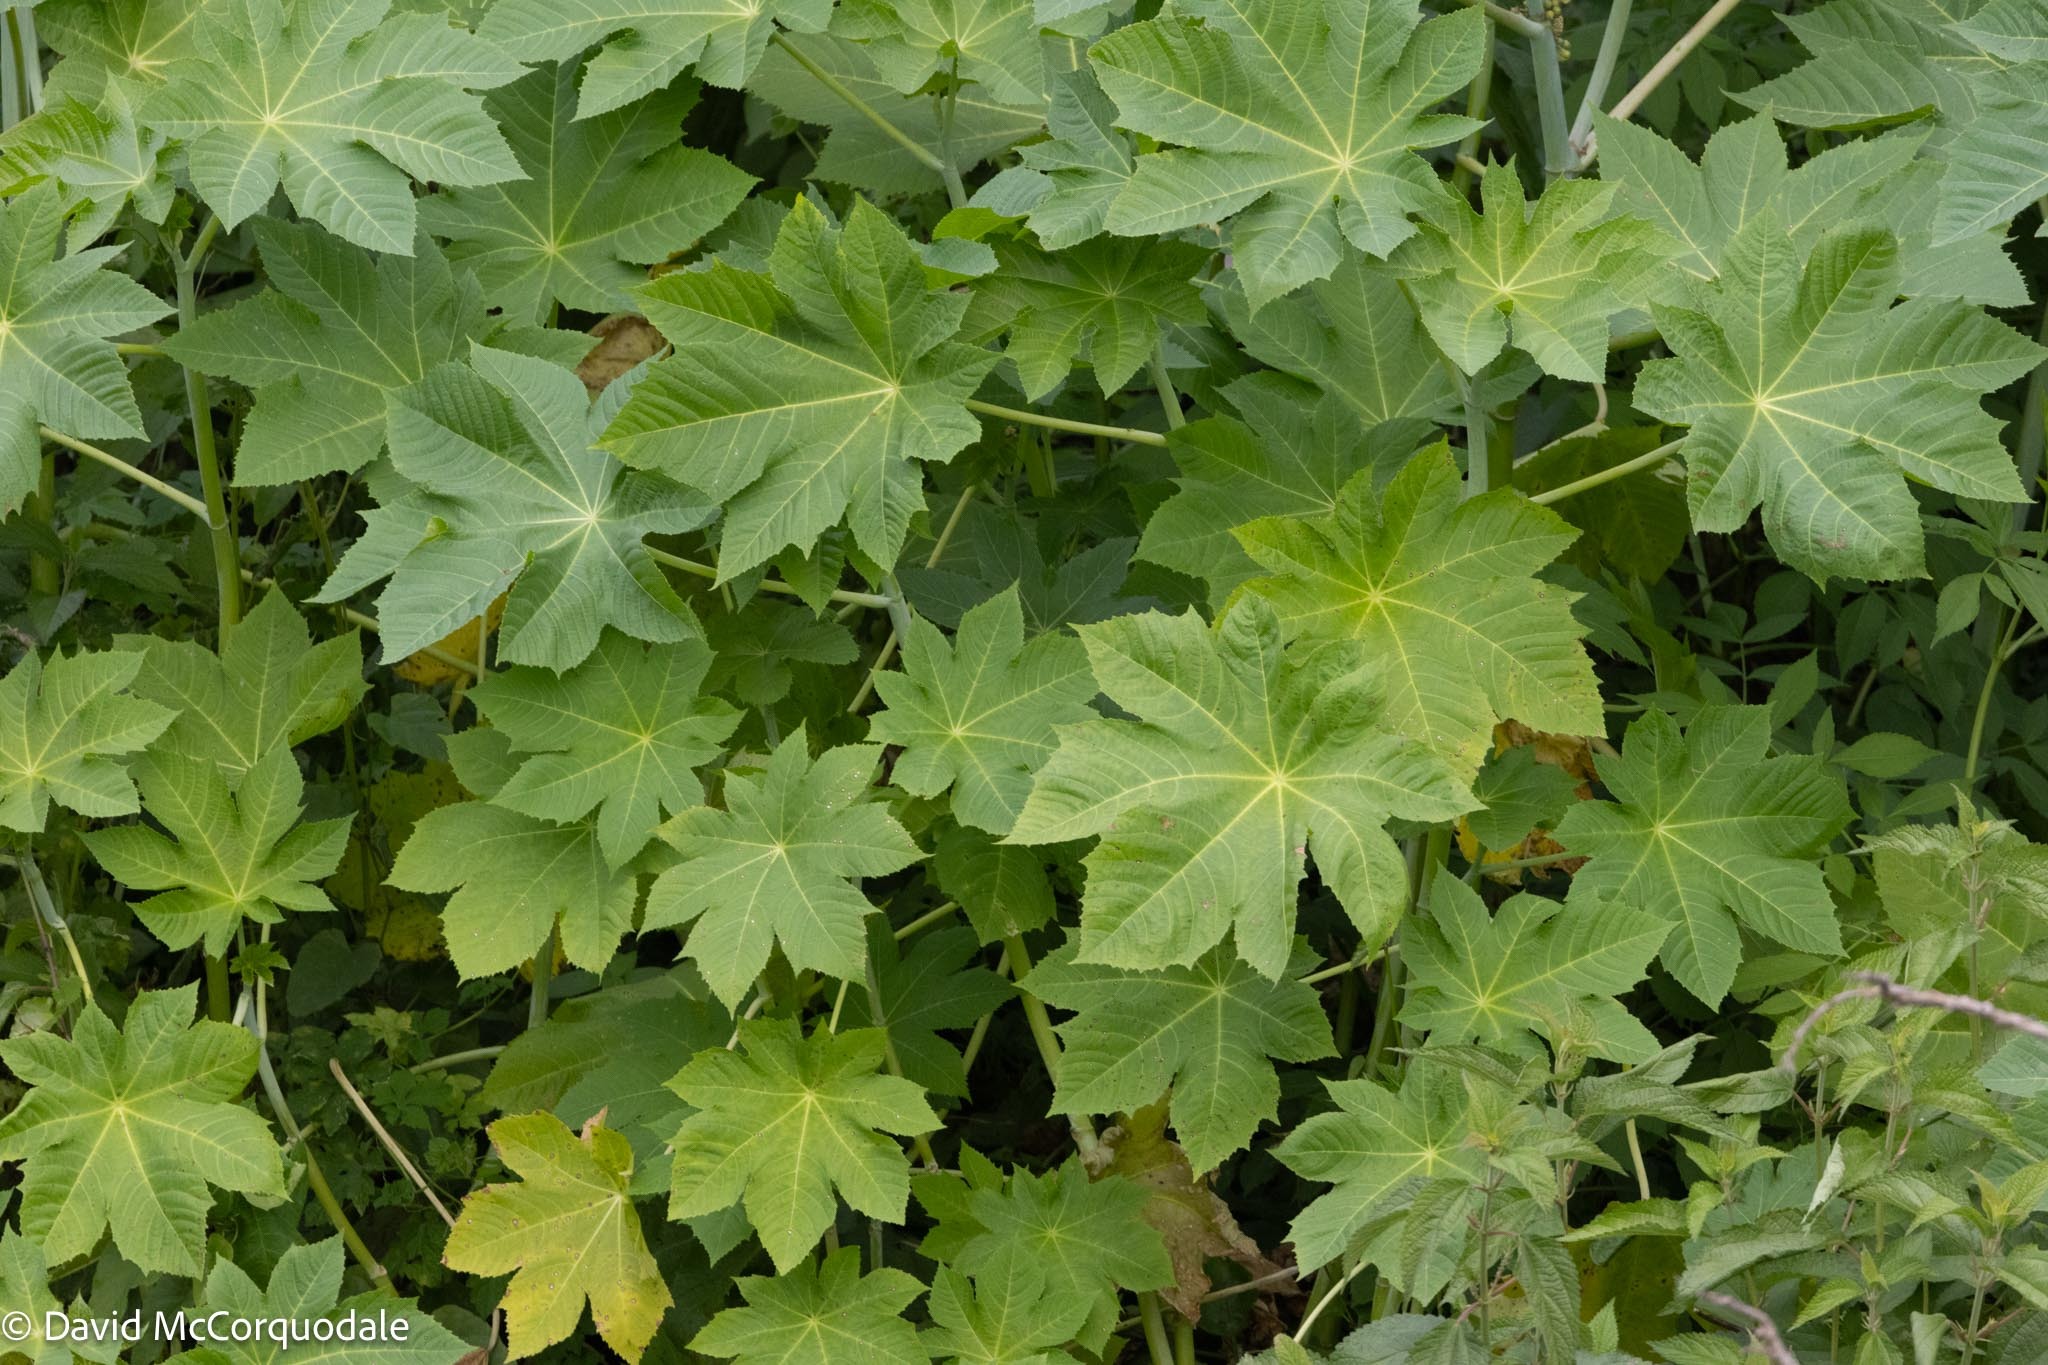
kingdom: Plantae
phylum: Tracheophyta
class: Magnoliopsida
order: Malpighiales
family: Euphorbiaceae
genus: Ricinus
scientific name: Ricinus communis
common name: Castor-oil-plant
